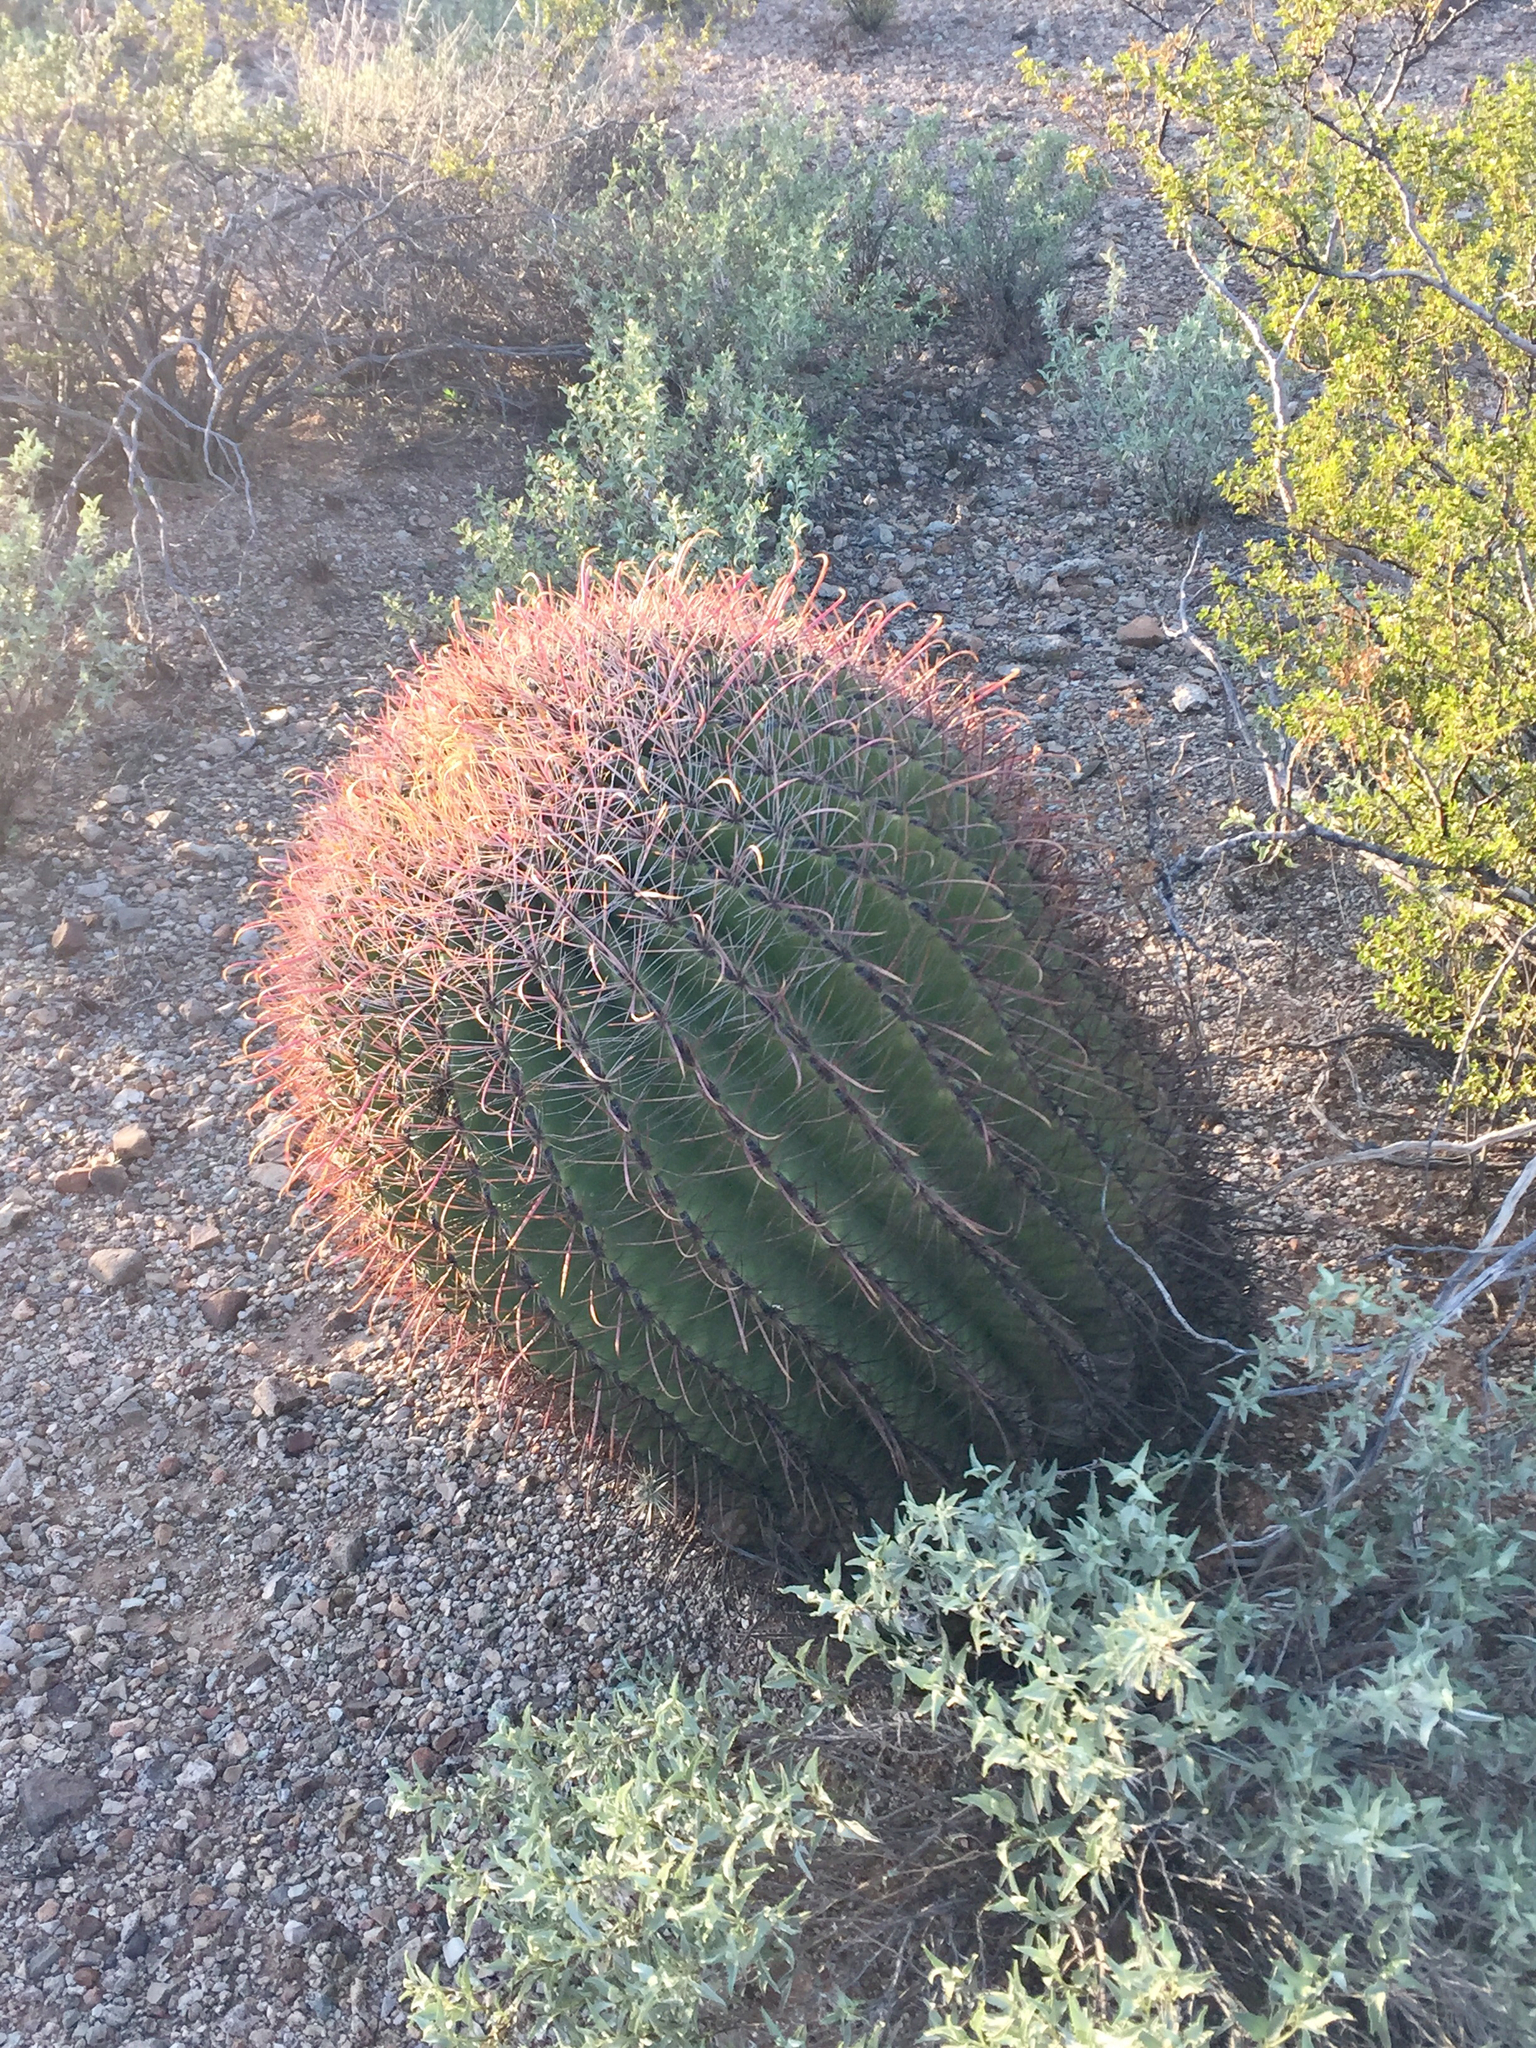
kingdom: Plantae
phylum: Tracheophyta
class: Magnoliopsida
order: Caryophyllales
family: Cactaceae
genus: Ferocactus
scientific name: Ferocactus wislizeni
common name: Candy barrel cactus
